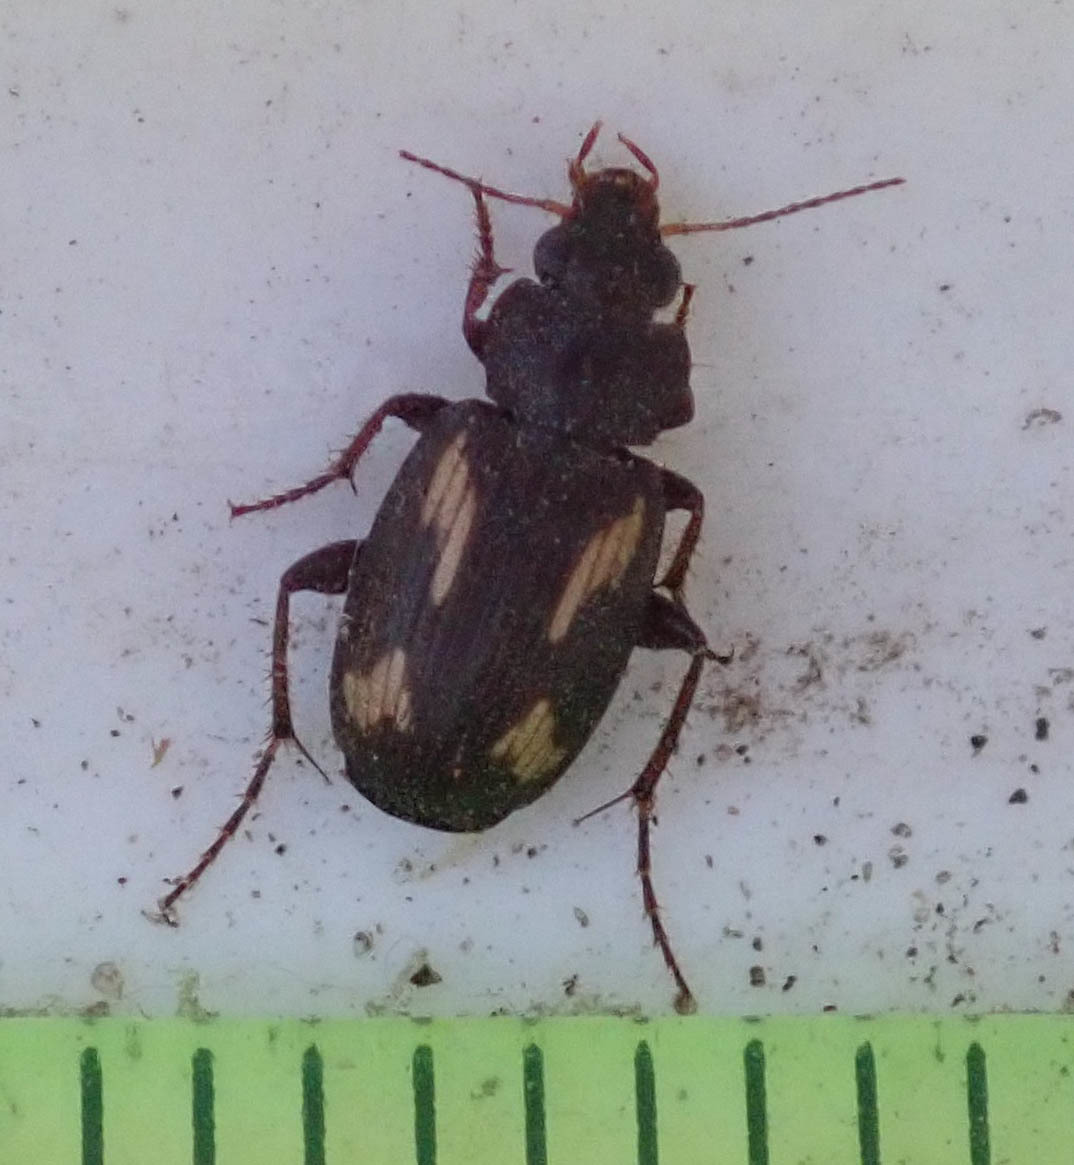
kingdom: Animalia
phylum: Arthropoda
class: Insecta
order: Coleoptera
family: Carabidae
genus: Tetragonoderus
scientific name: Tetragonoderus thunbergi
